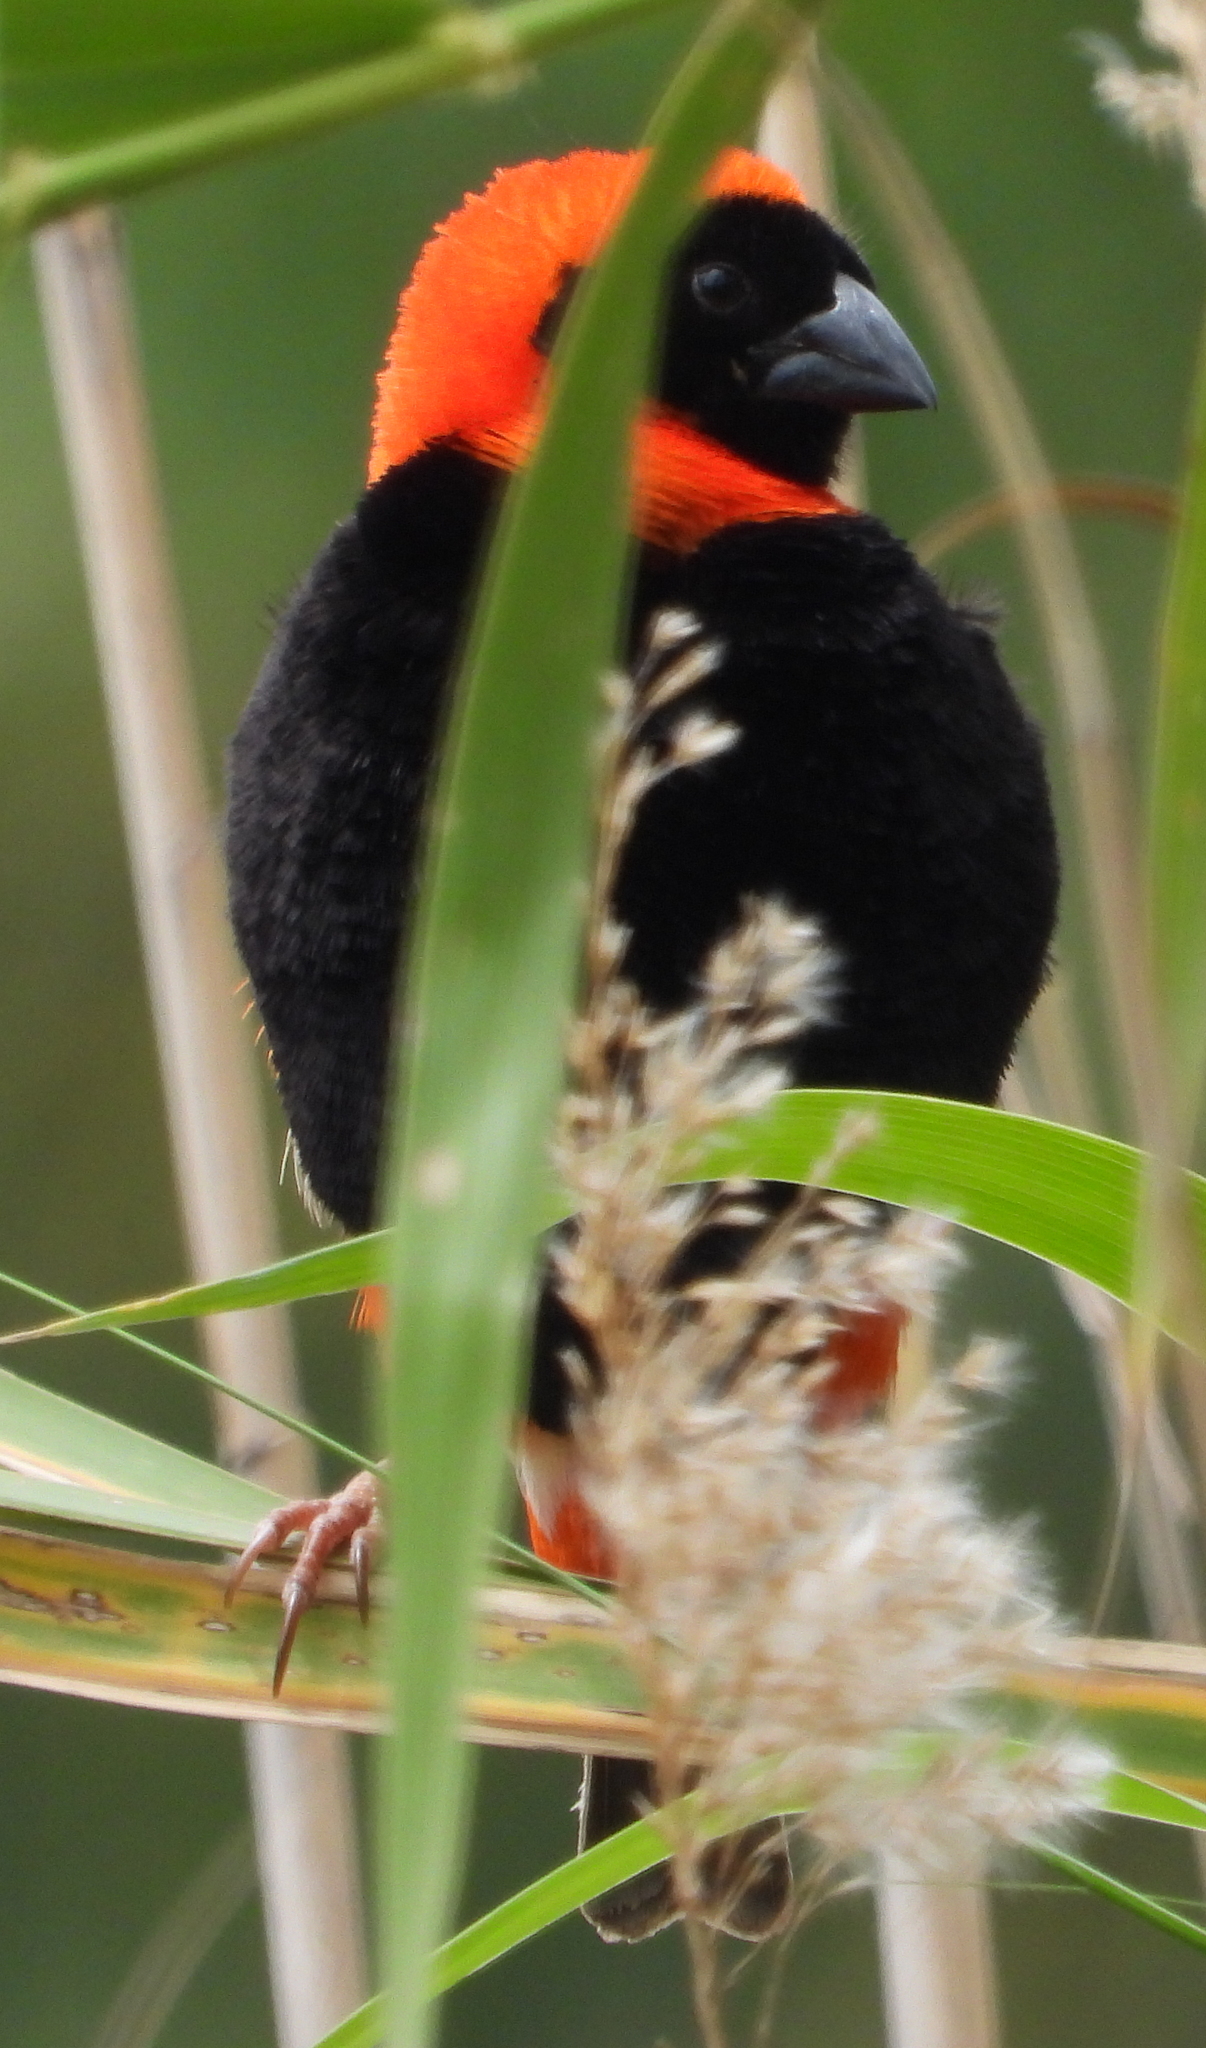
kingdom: Animalia
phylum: Chordata
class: Aves
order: Passeriformes
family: Ploceidae
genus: Euplectes
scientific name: Euplectes orix
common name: Southern red bishop
